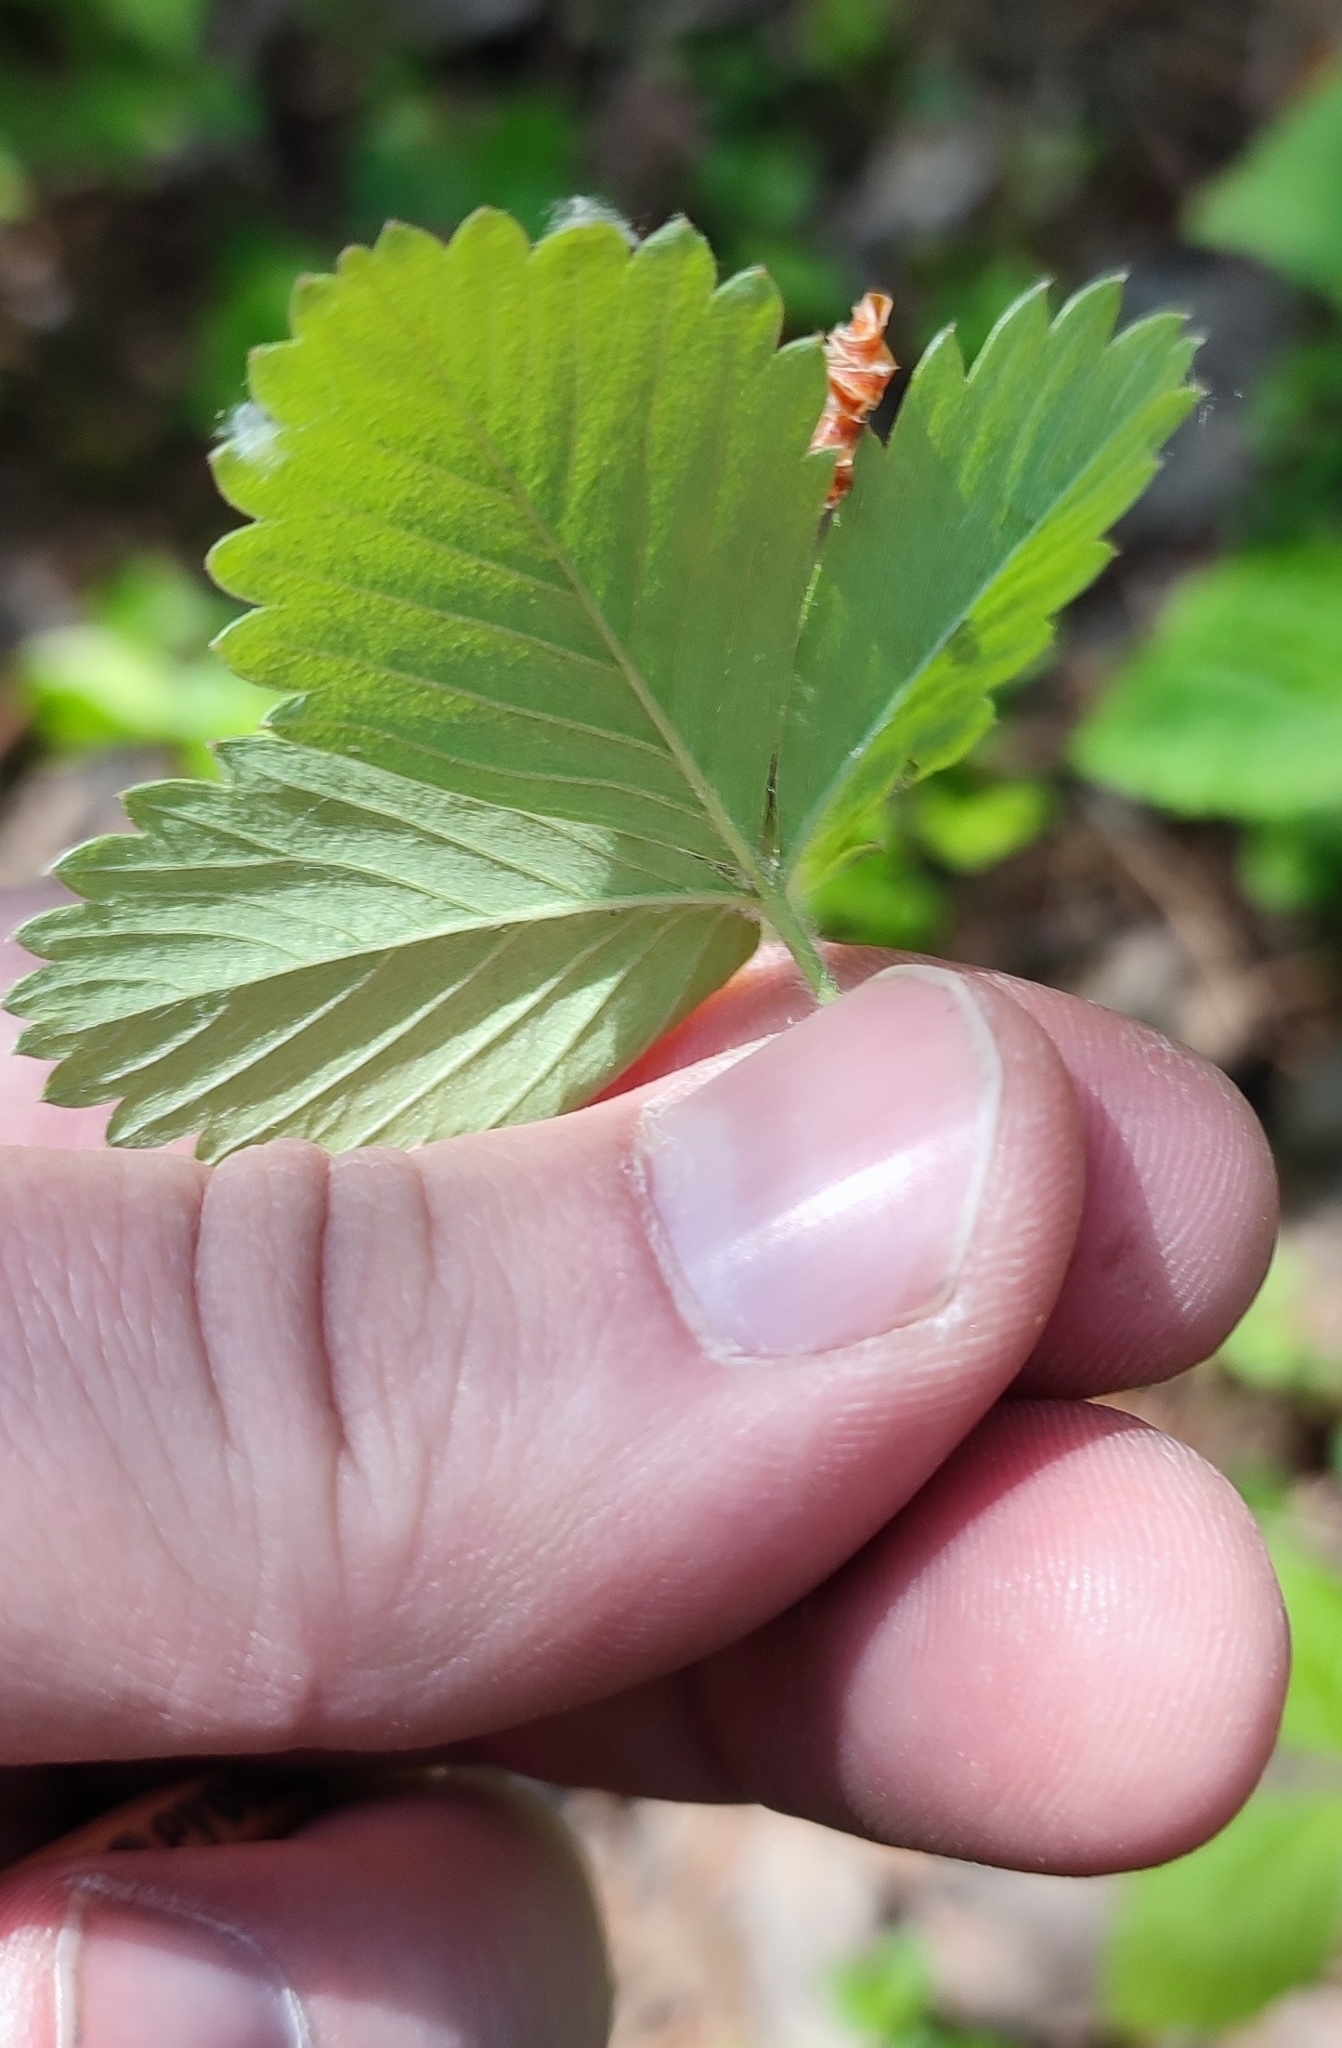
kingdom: Plantae
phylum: Tracheophyta
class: Magnoliopsida
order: Rosales
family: Rosaceae
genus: Fragaria
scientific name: Fragaria vesca
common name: Wild strawberry
